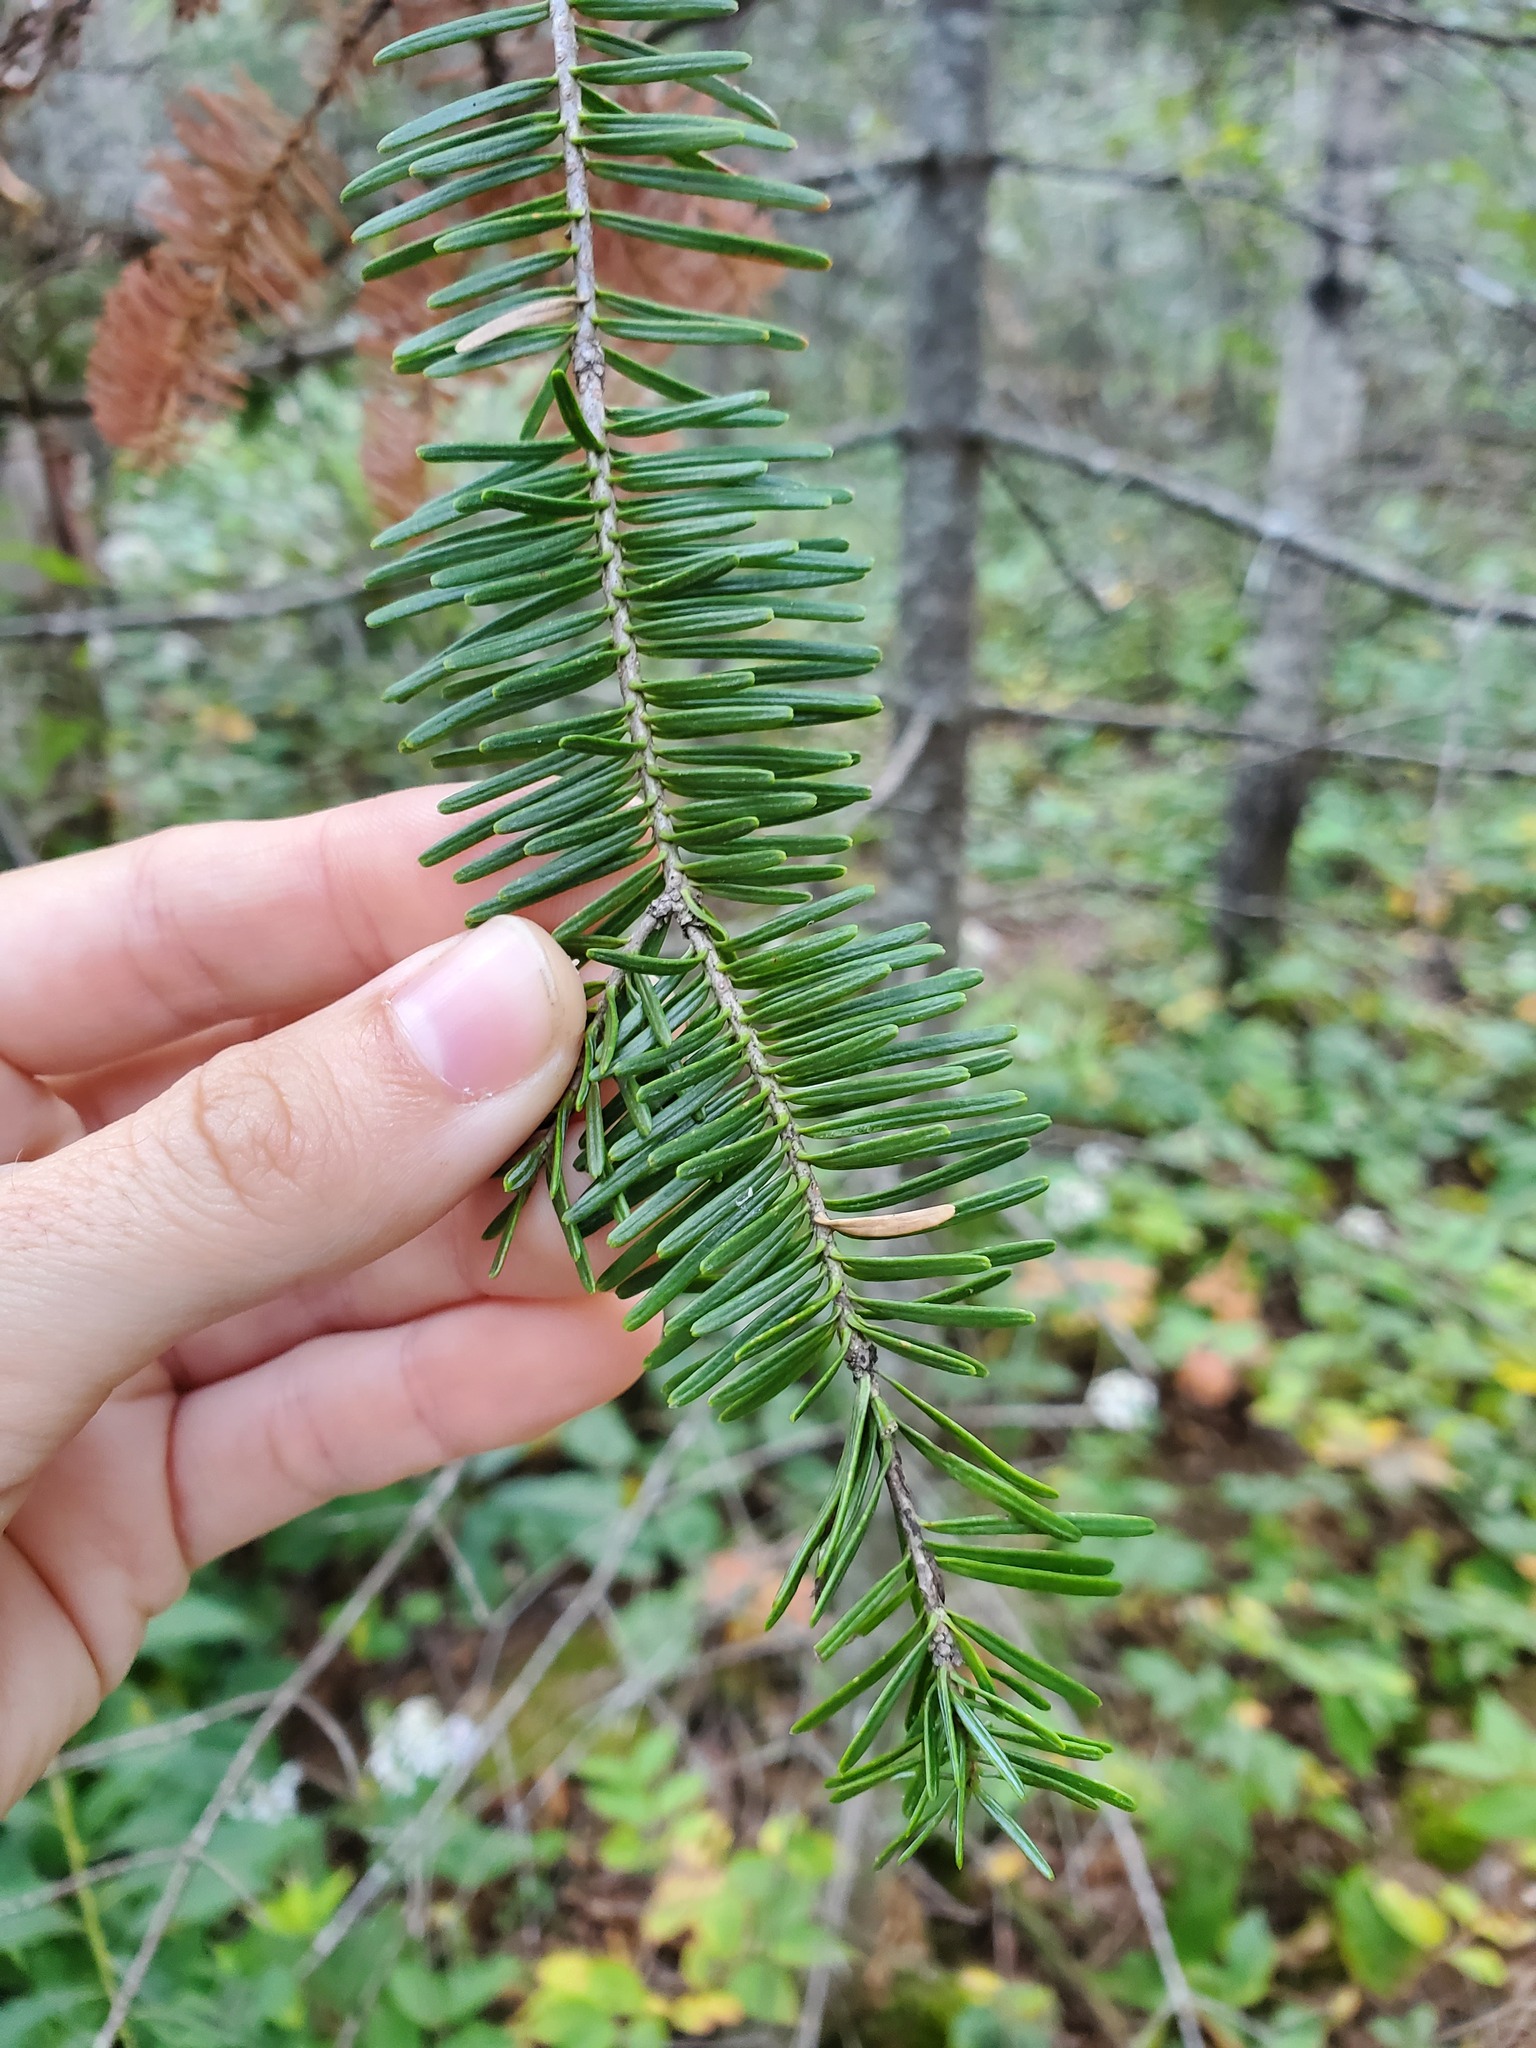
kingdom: Plantae
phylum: Tracheophyta
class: Pinopsida
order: Pinales
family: Pinaceae
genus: Abies
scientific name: Abies balsamea
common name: Balsam fir
